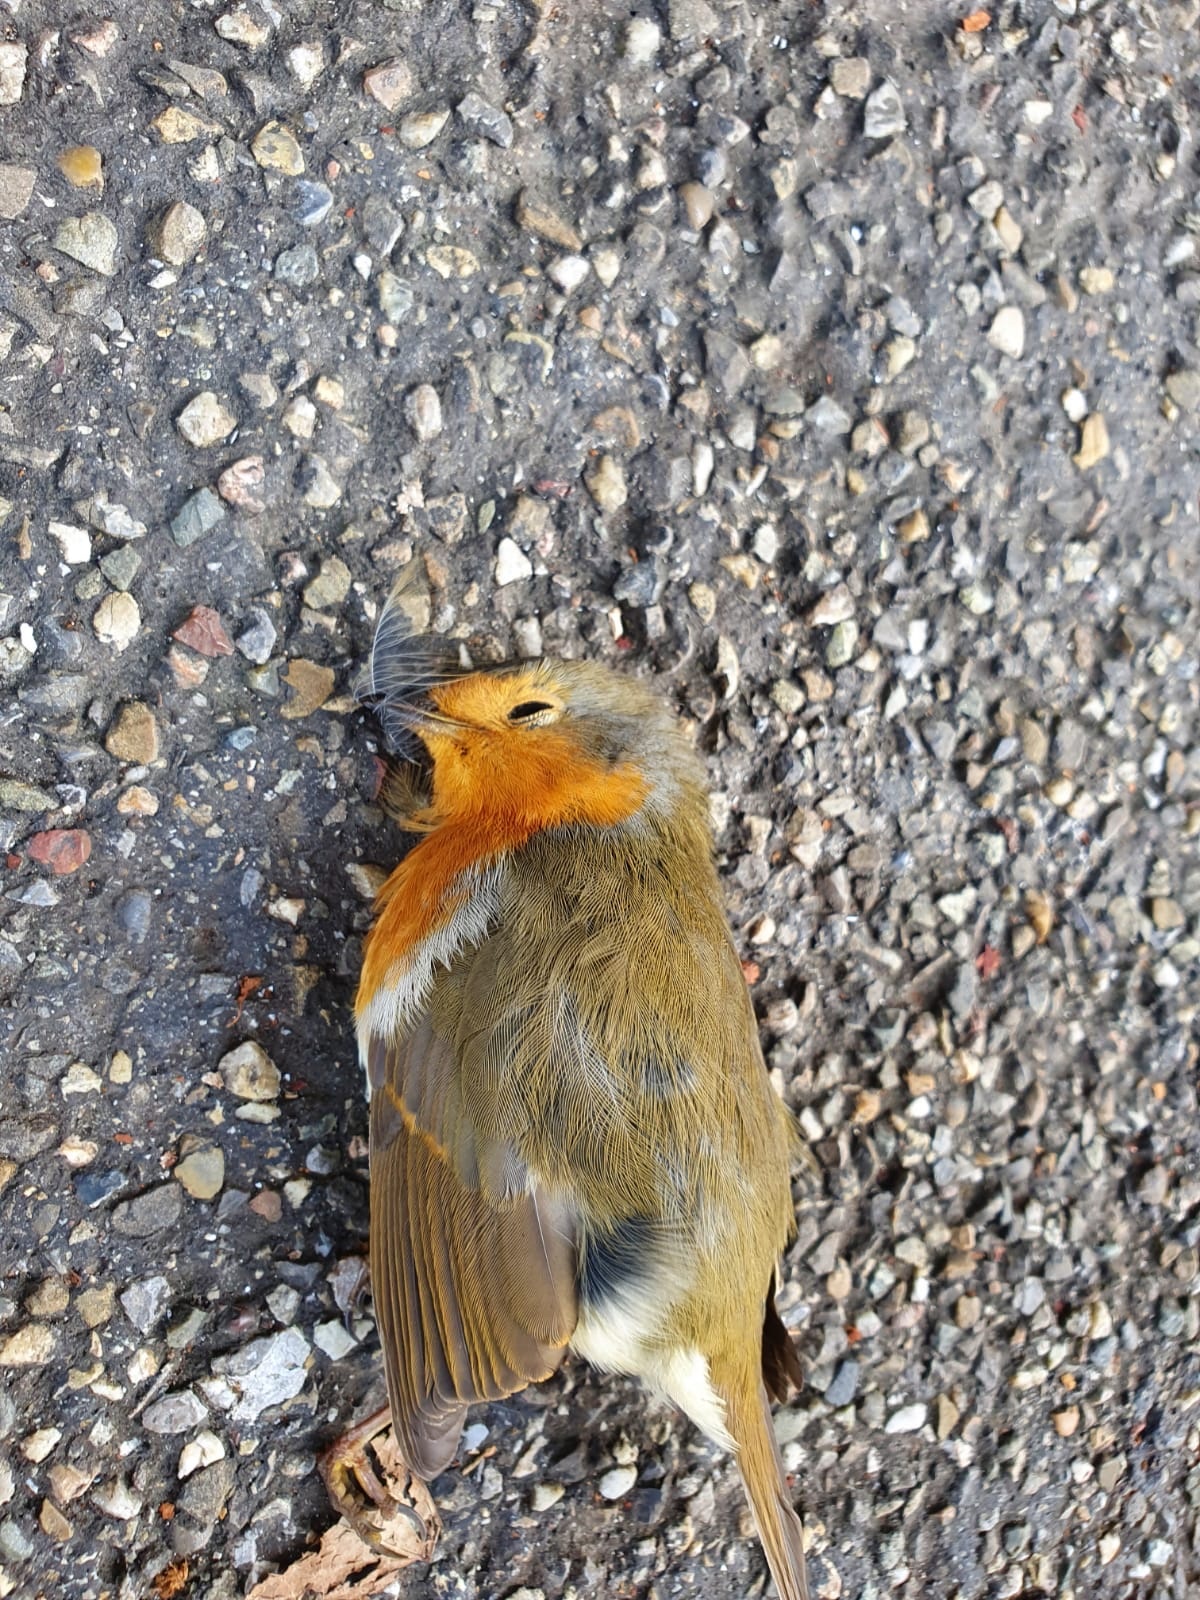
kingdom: Animalia
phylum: Chordata
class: Aves
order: Passeriformes
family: Muscicapidae
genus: Erithacus
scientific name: Erithacus rubecula
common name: European robin
